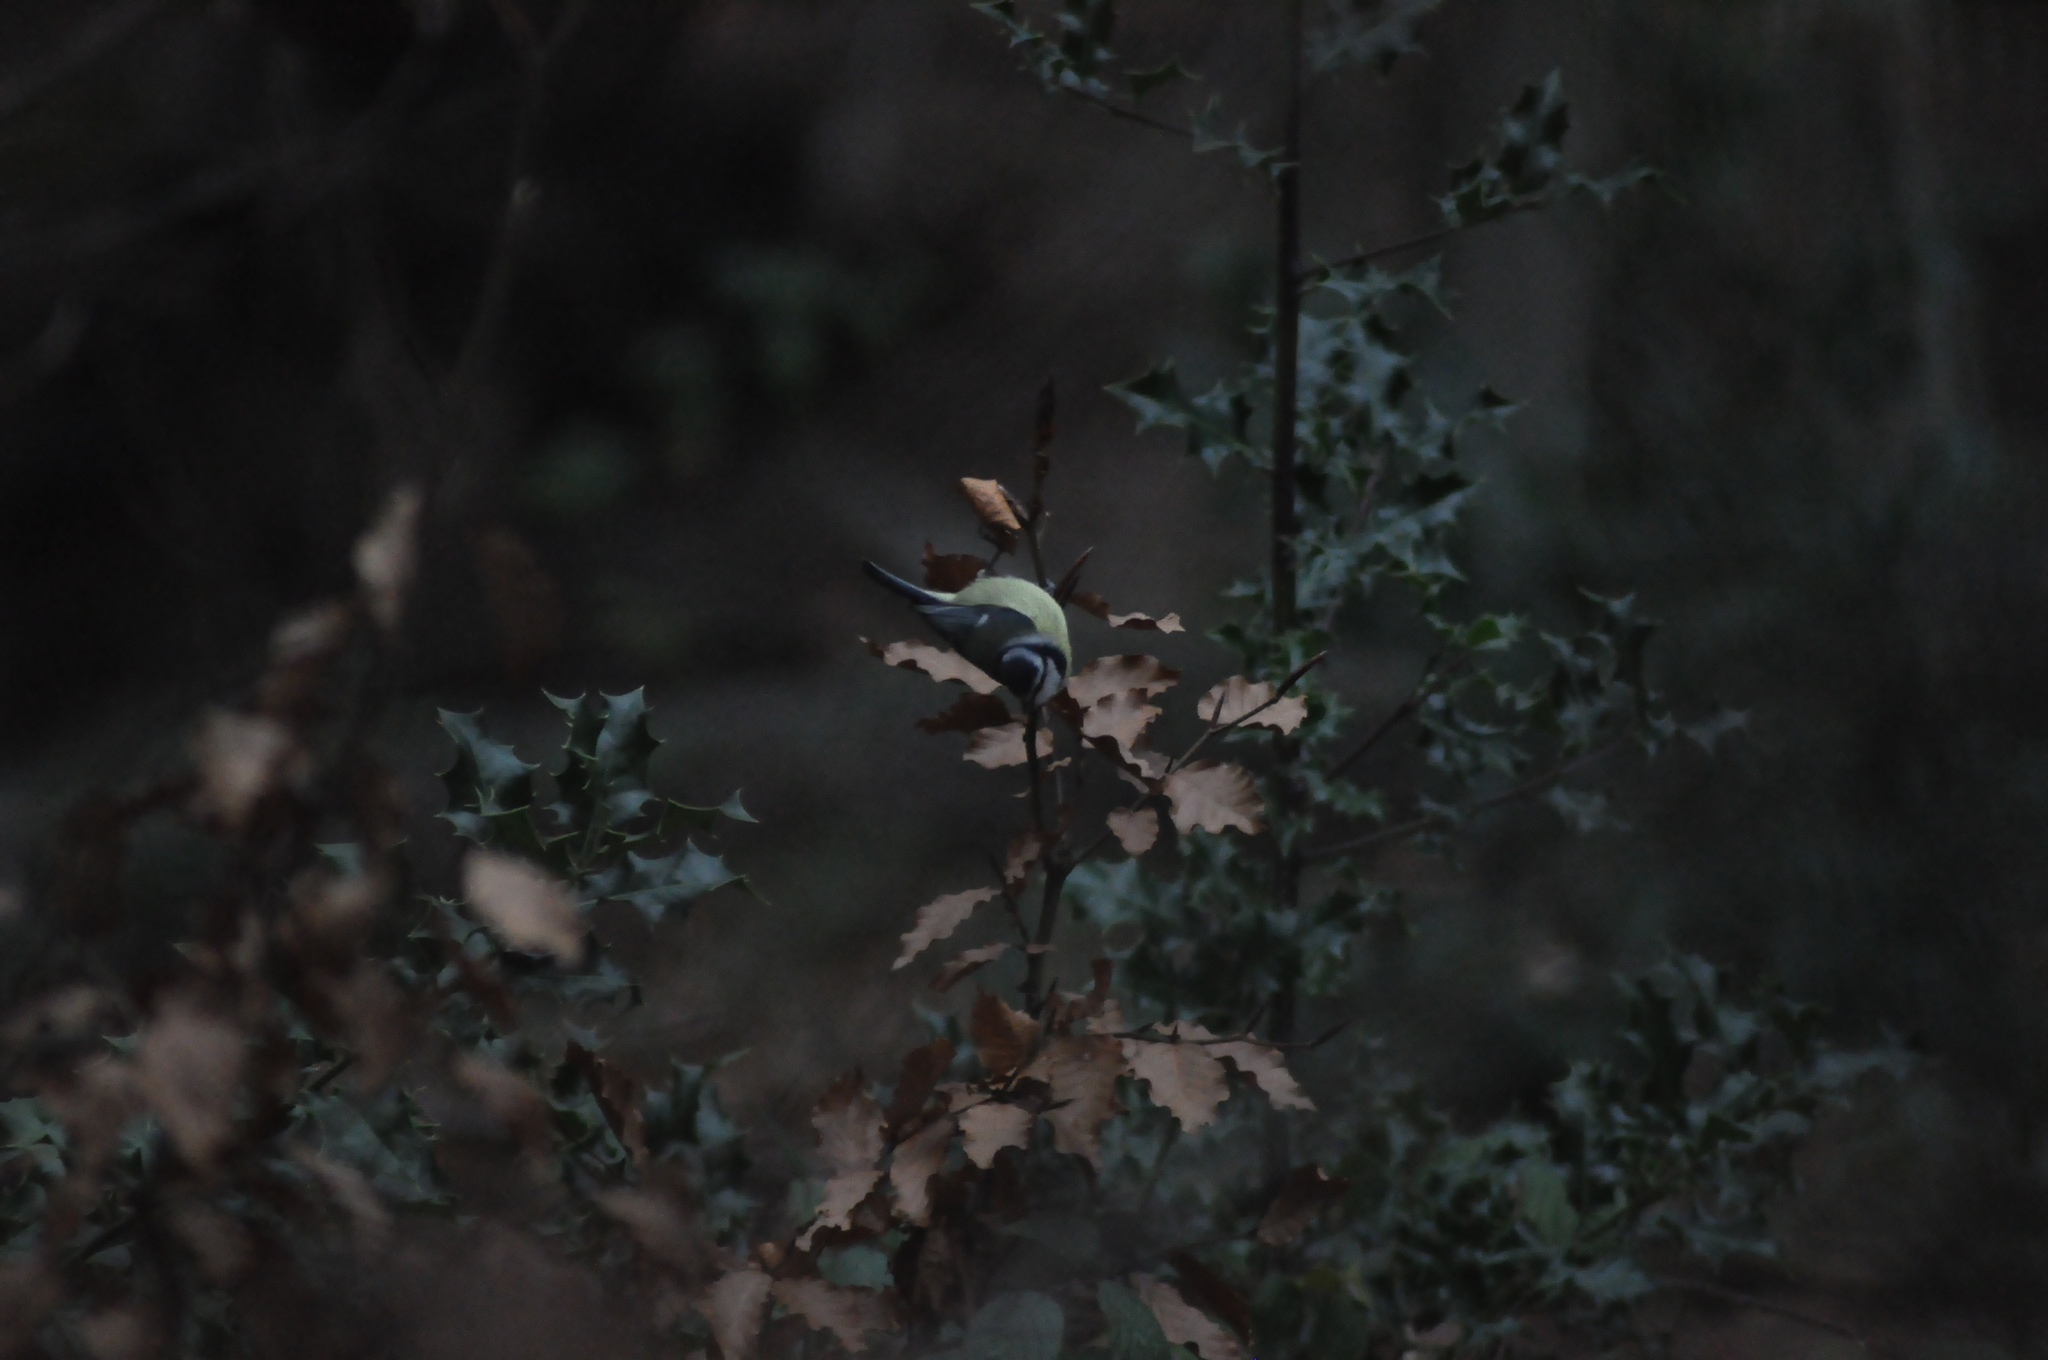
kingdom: Animalia
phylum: Chordata
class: Aves
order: Passeriformes
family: Paridae
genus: Cyanistes
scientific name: Cyanistes caeruleus
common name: Eurasian blue tit
